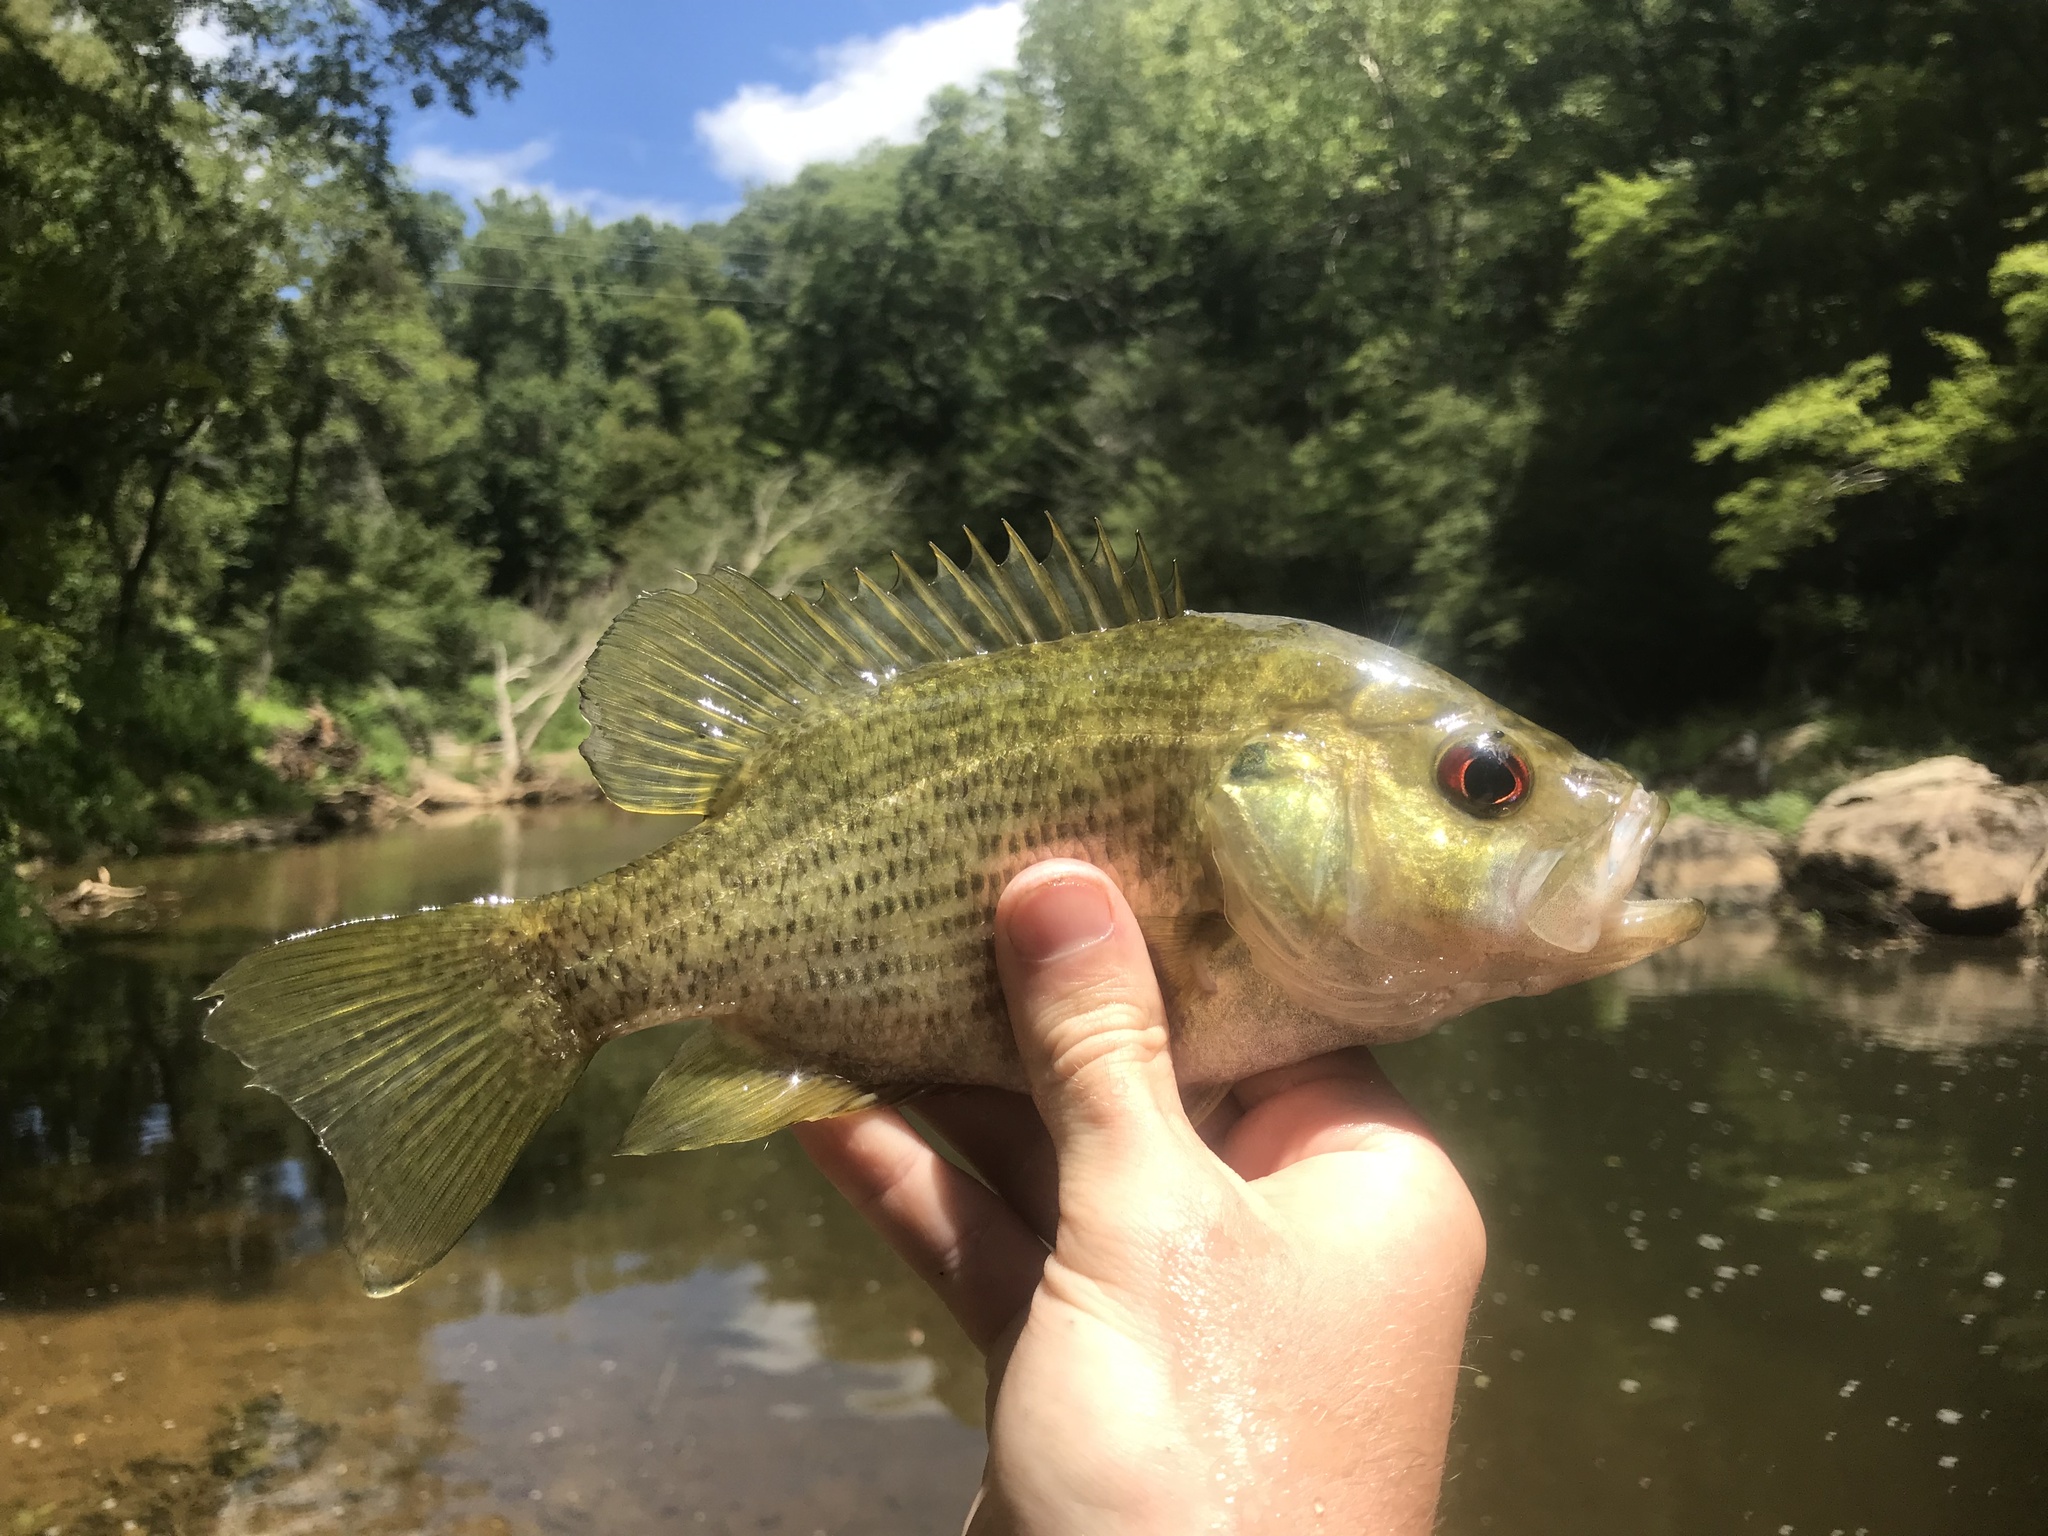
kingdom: Animalia
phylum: Chordata
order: Perciformes
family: Centrarchidae
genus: Ambloplites
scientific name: Ambloplites cavifrons
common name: Roanoke bass
